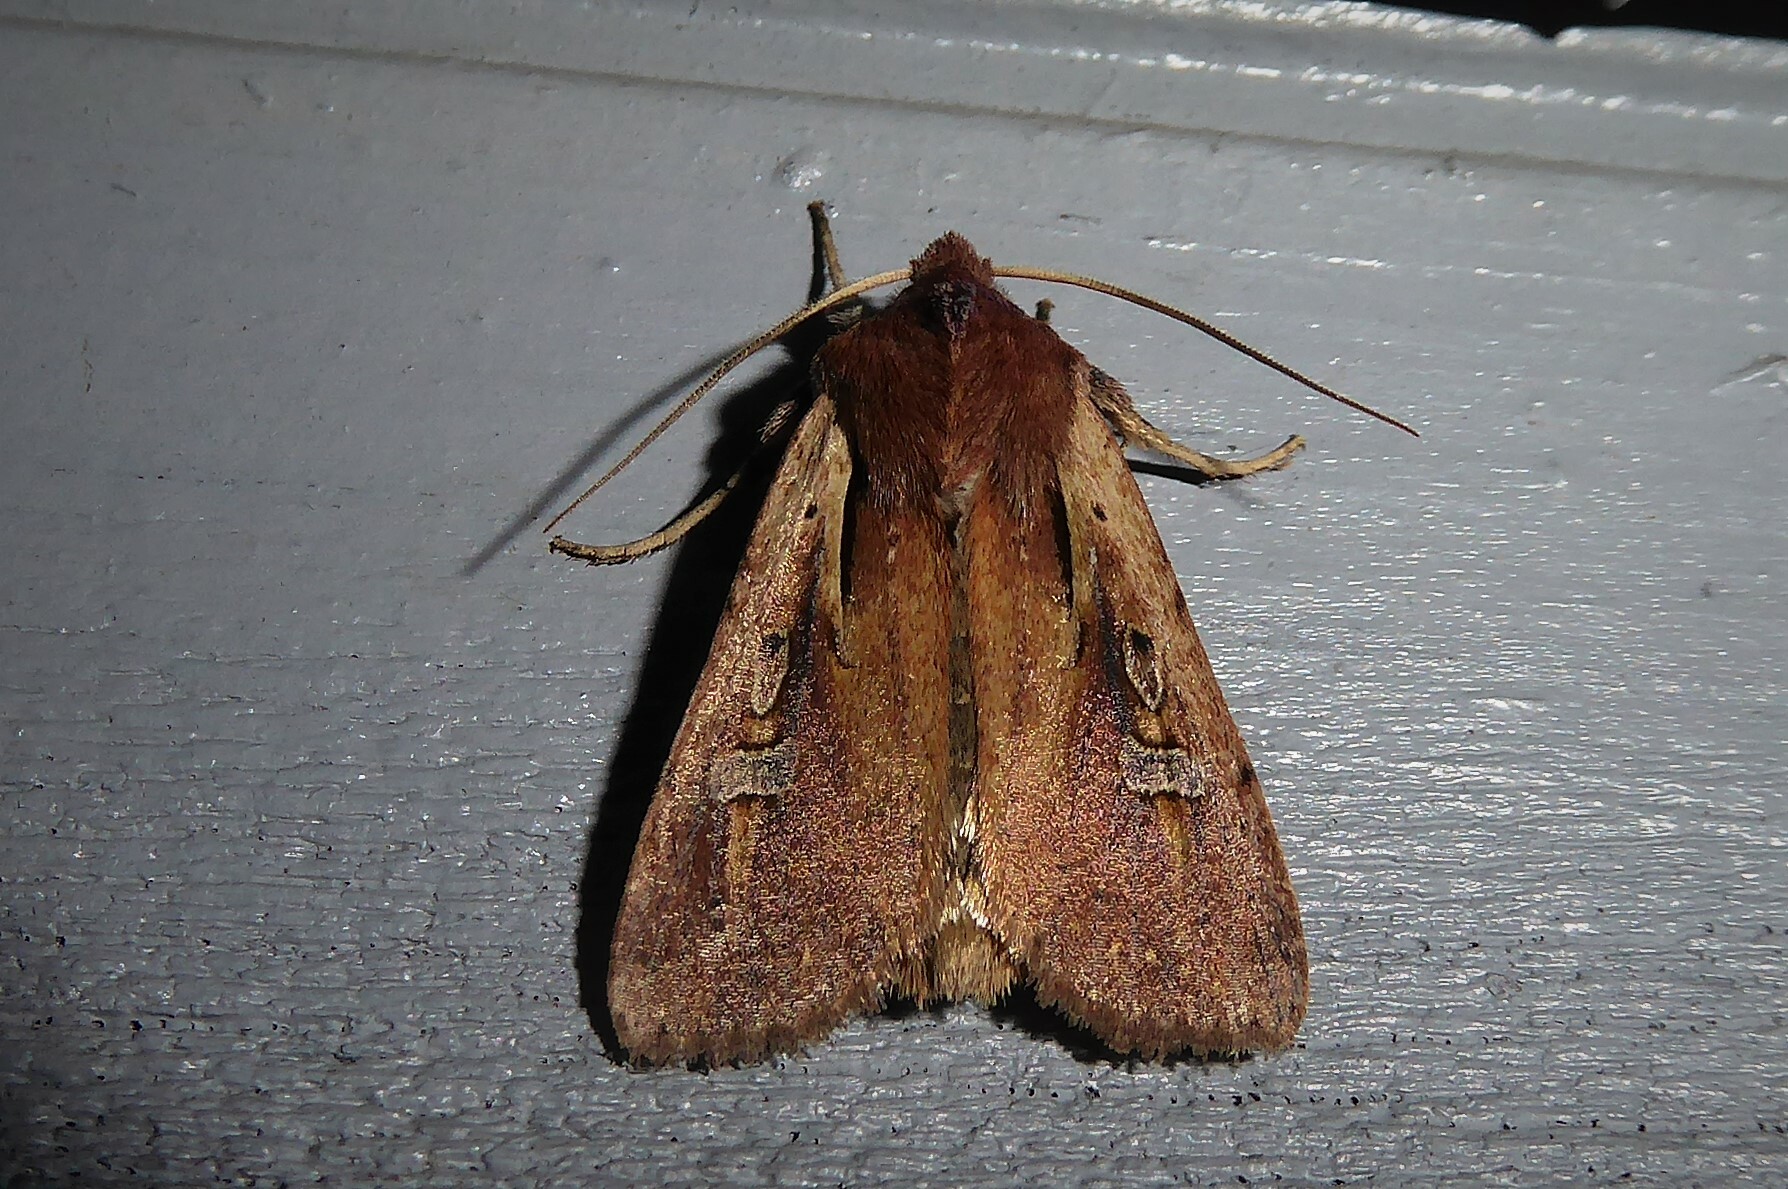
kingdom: Animalia
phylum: Arthropoda
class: Insecta
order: Lepidoptera
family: Noctuidae
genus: Ichneutica
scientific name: Ichneutica atristriga
